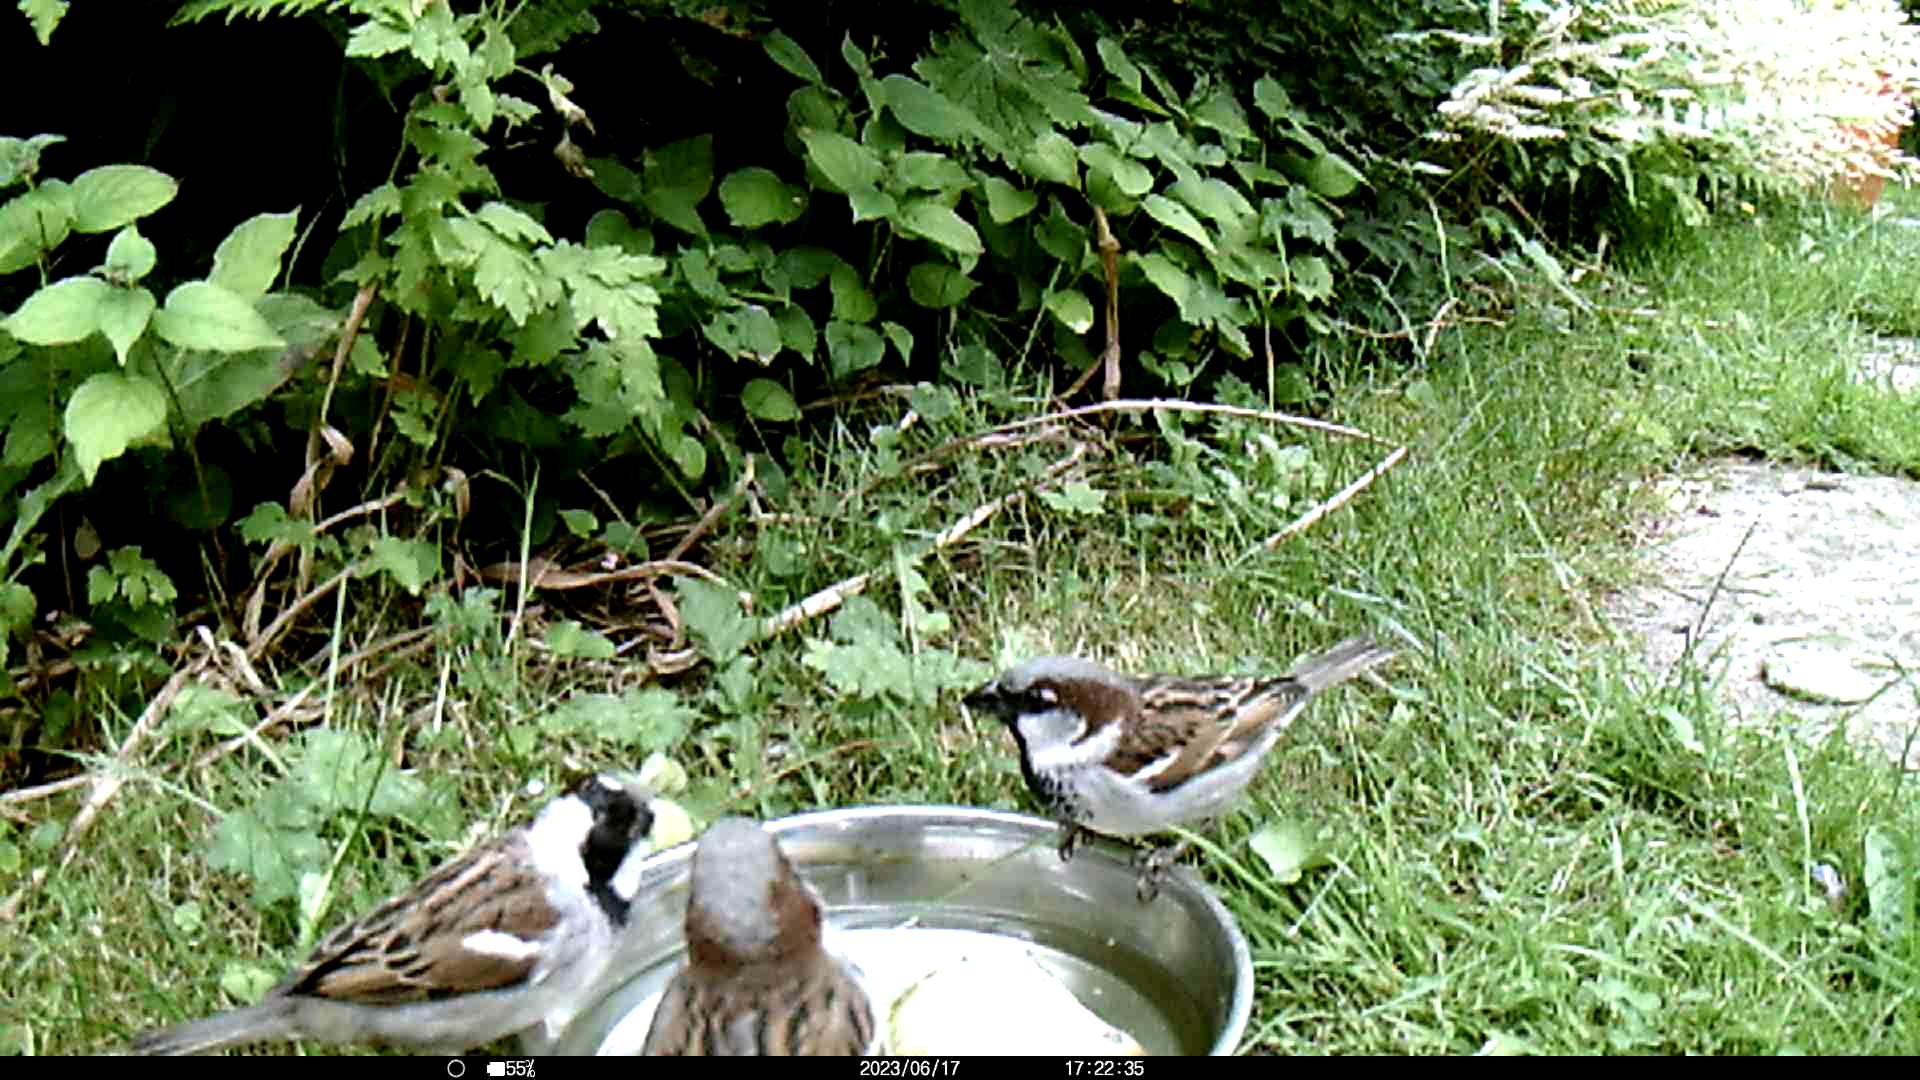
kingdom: Animalia
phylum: Chordata
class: Aves
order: Passeriformes
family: Passeridae
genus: Passer
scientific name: Passer domesticus
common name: House sparrow
